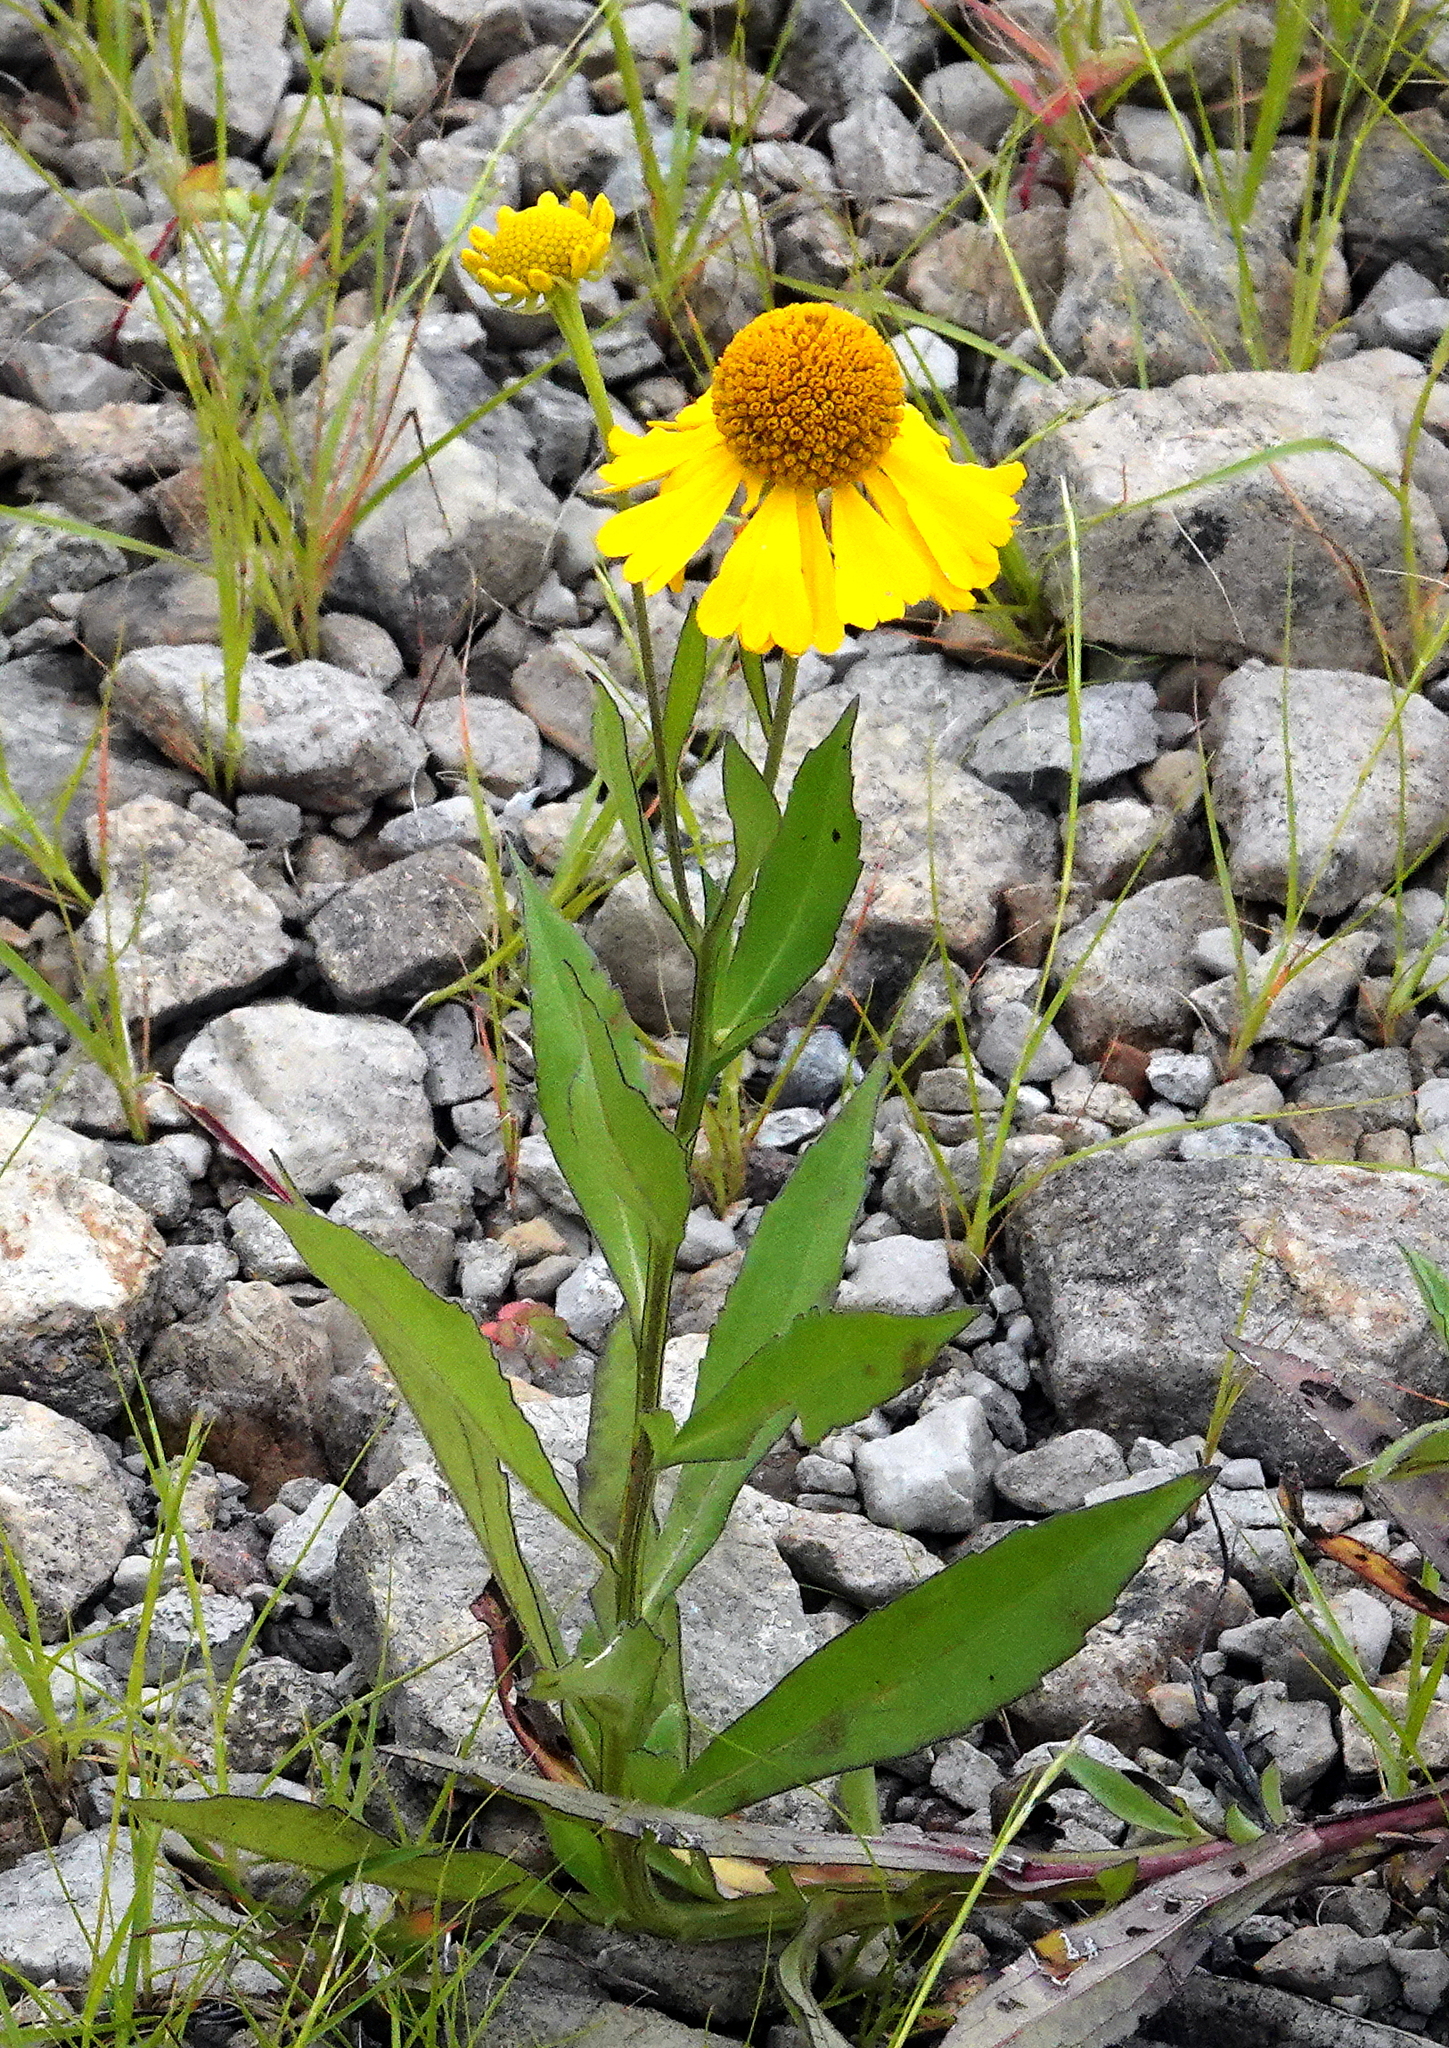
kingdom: Plantae
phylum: Tracheophyta
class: Magnoliopsida
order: Asterales
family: Asteraceae
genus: Helenium
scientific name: Helenium autumnale
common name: Sneezeweed
